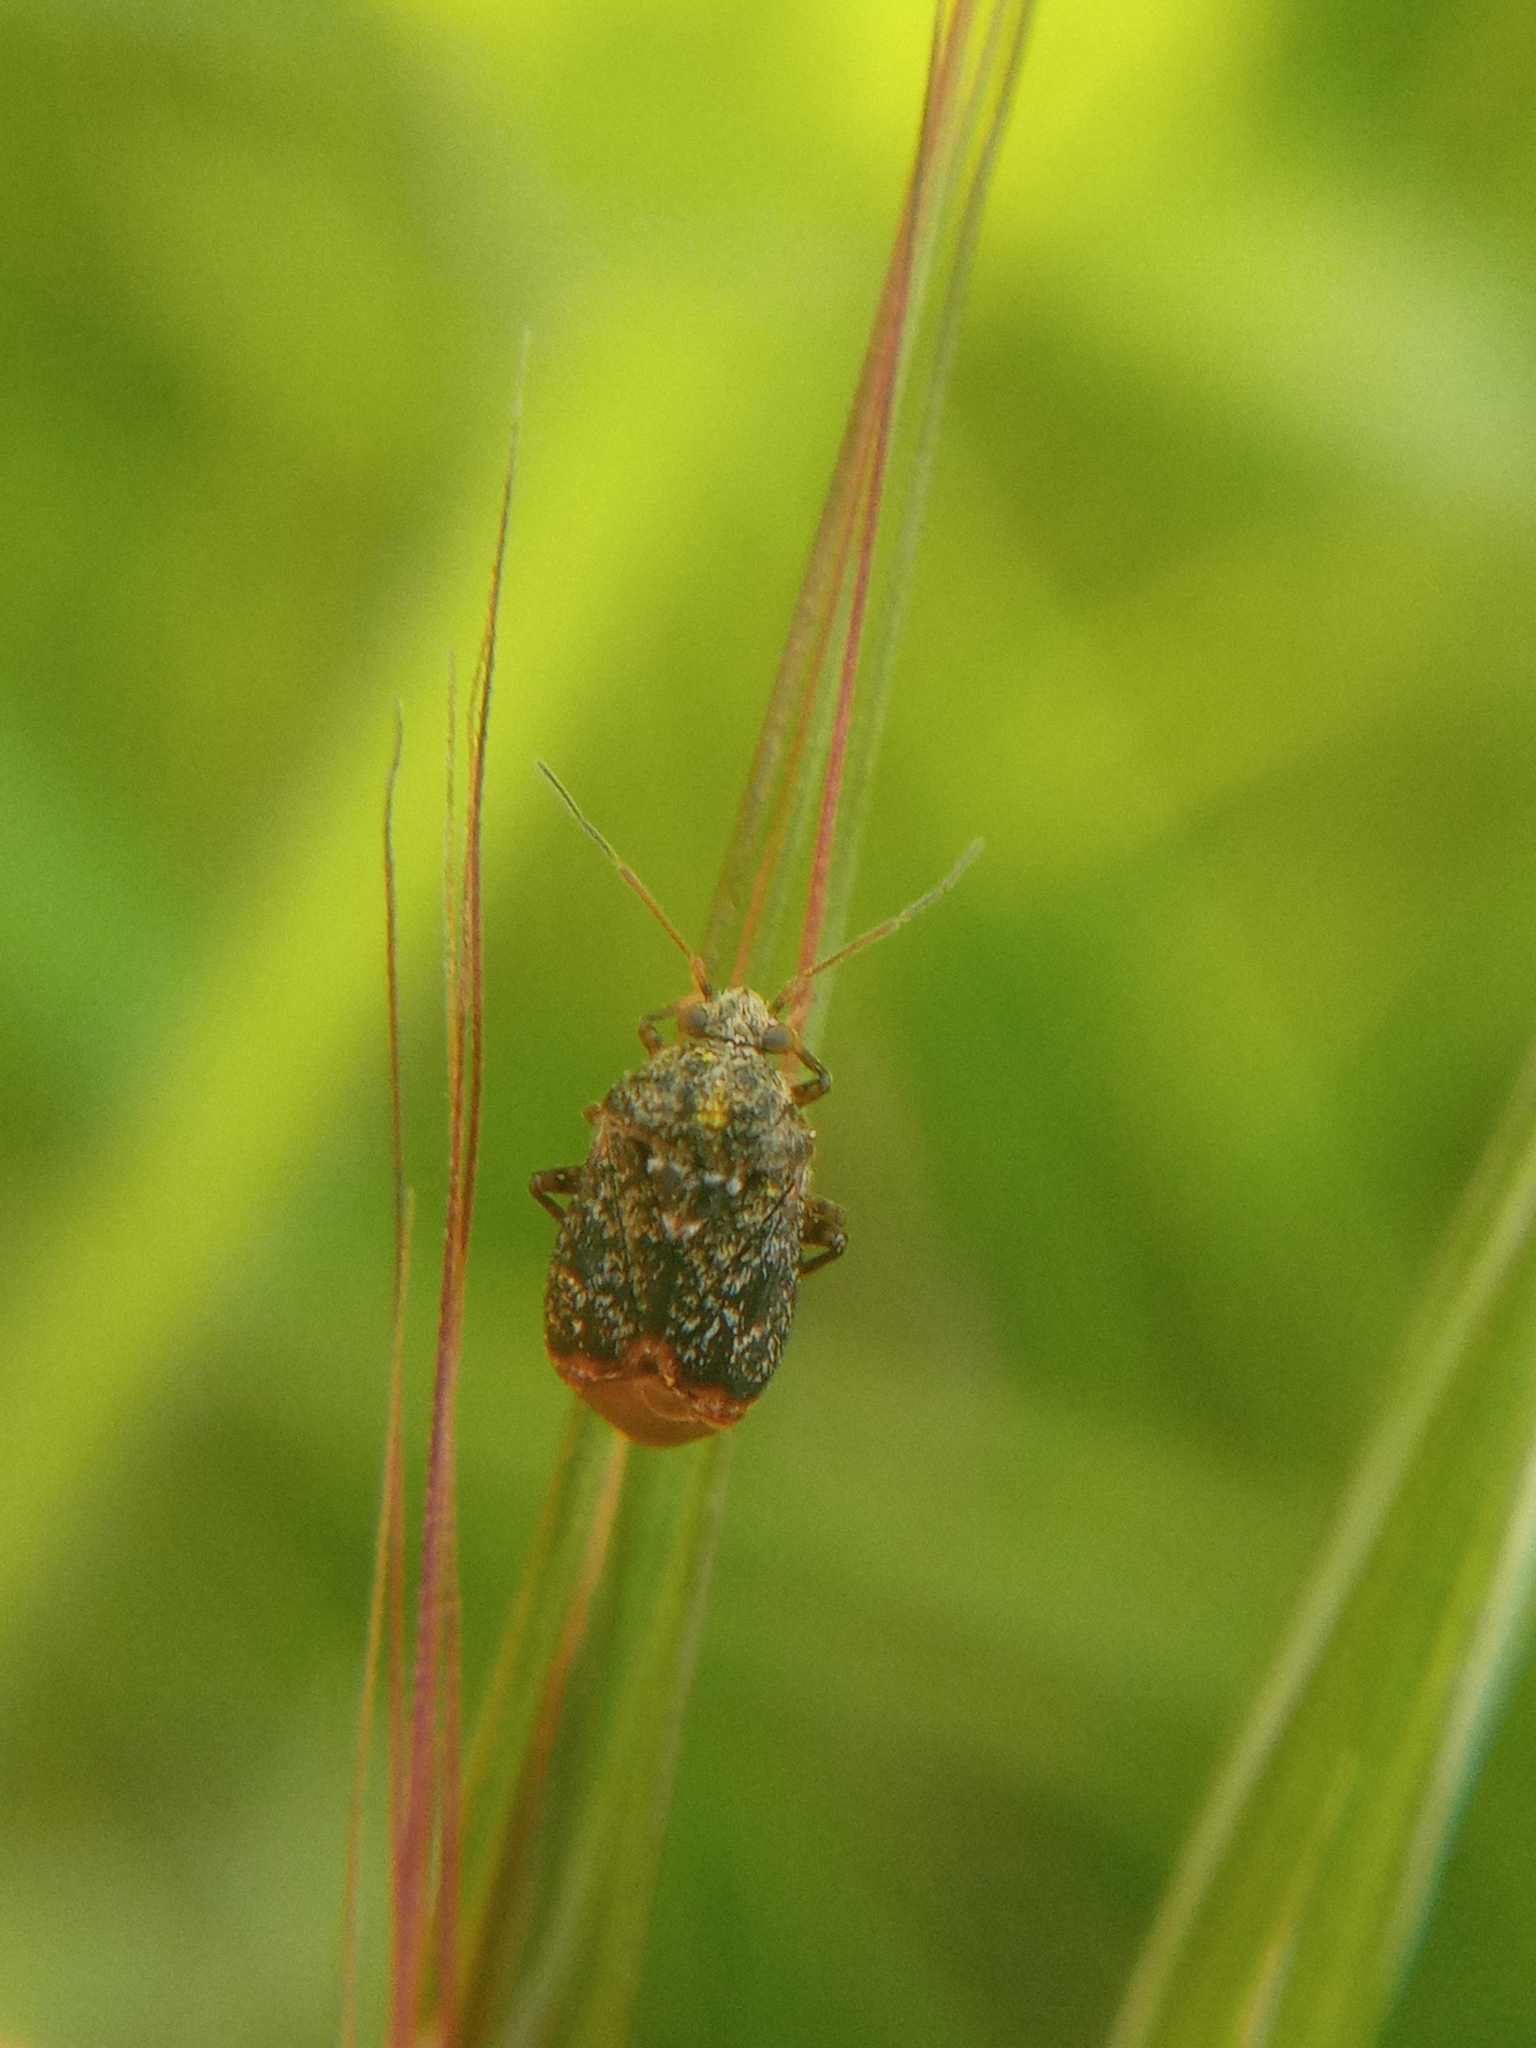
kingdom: Animalia
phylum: Arthropoda
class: Insecta
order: Hemiptera
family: Miridae
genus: Charagochilus
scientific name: Charagochilus gyllenhalii
